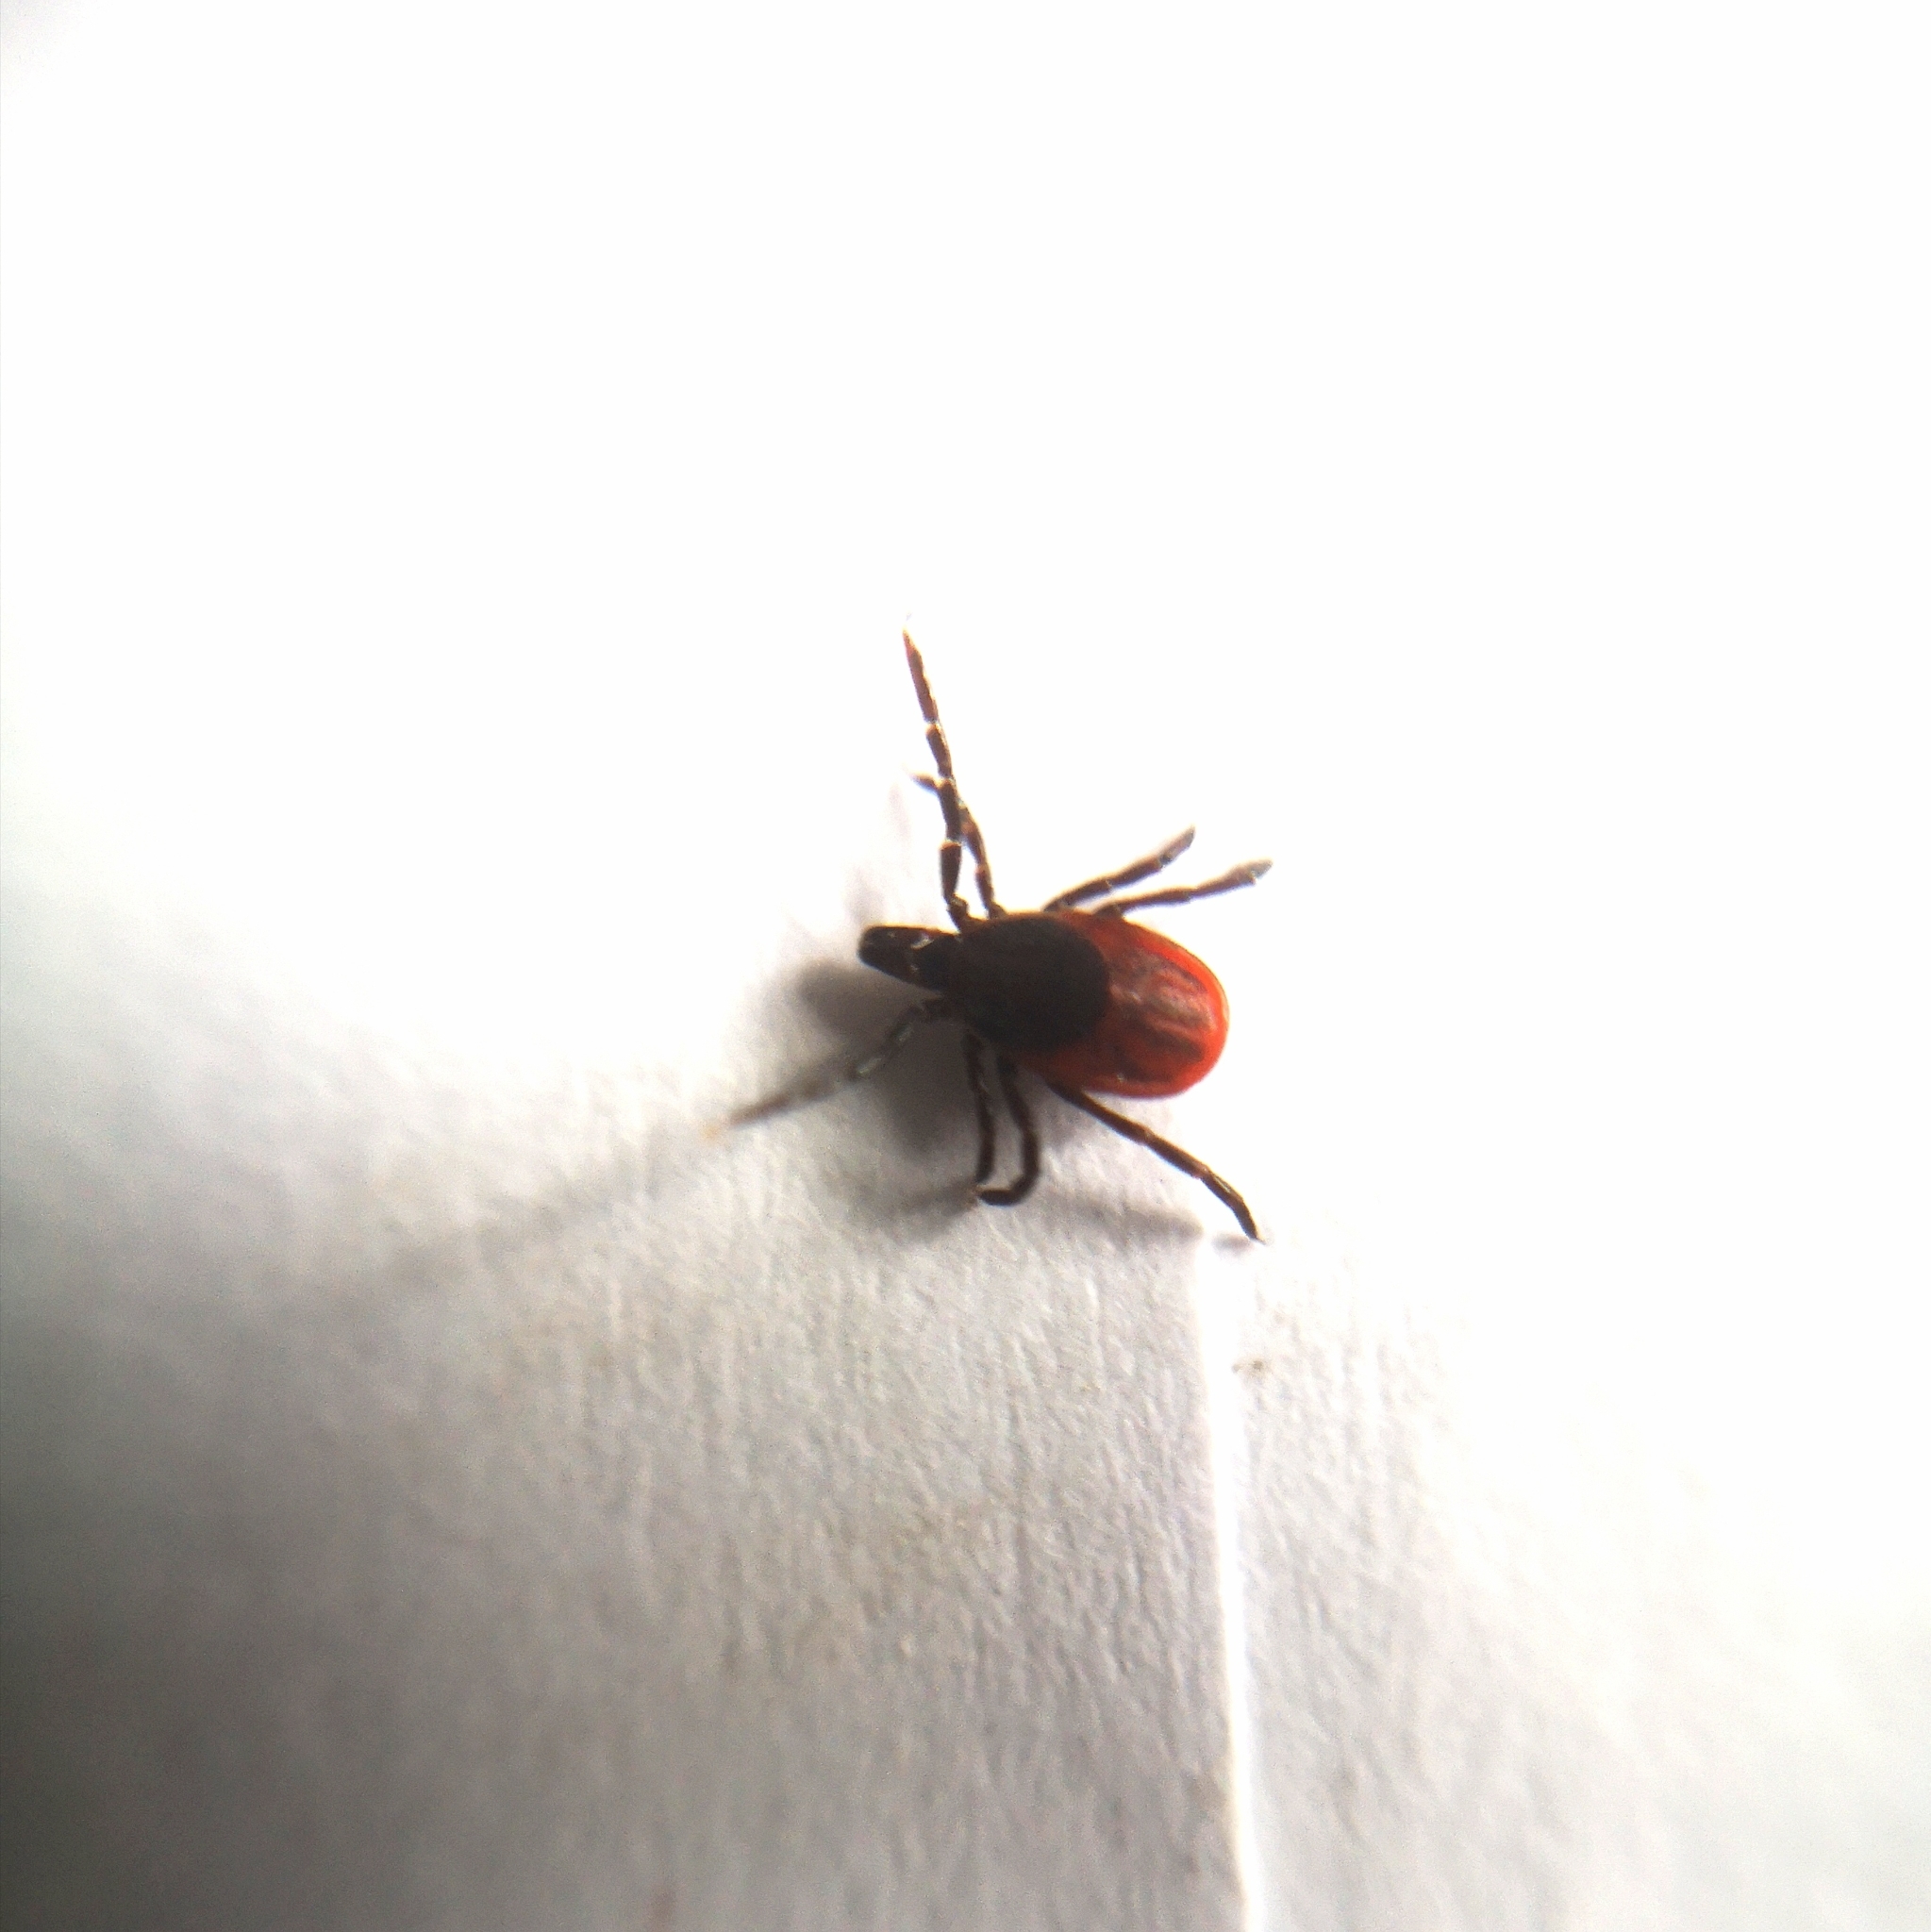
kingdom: Animalia
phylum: Arthropoda
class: Arachnida
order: Ixodida
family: Ixodidae
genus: Ixodes
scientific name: Ixodes scapularis
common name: Black legged tick
